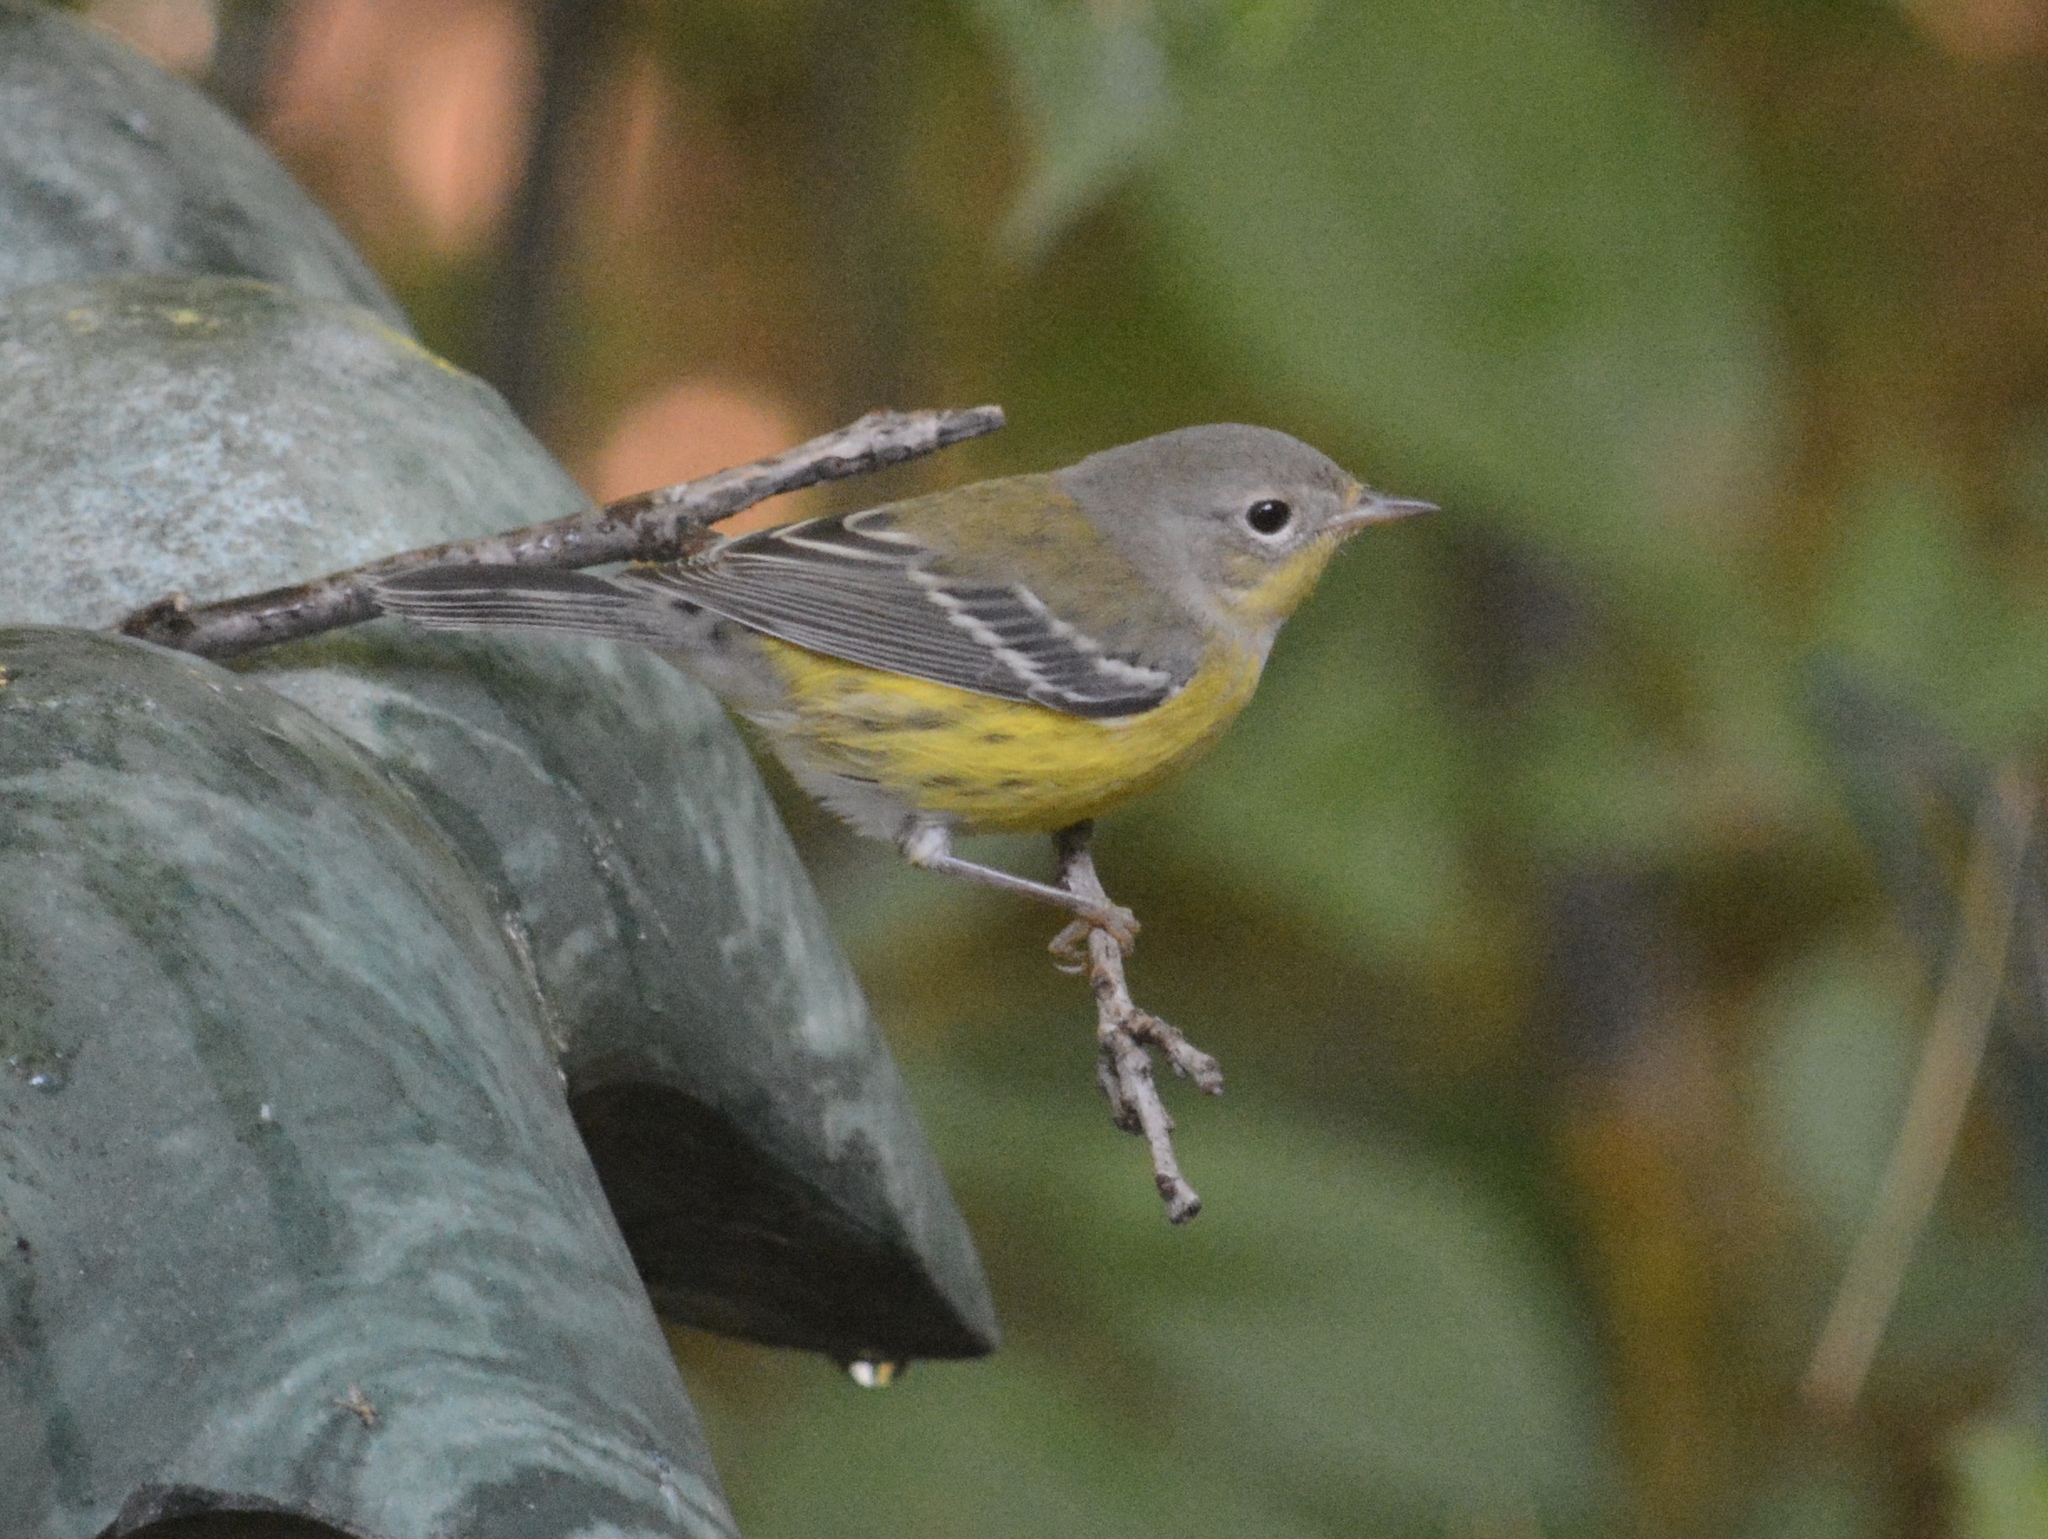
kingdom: Animalia
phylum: Chordata
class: Aves
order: Passeriformes
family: Parulidae
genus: Setophaga
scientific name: Setophaga magnolia
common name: Magnolia warbler
